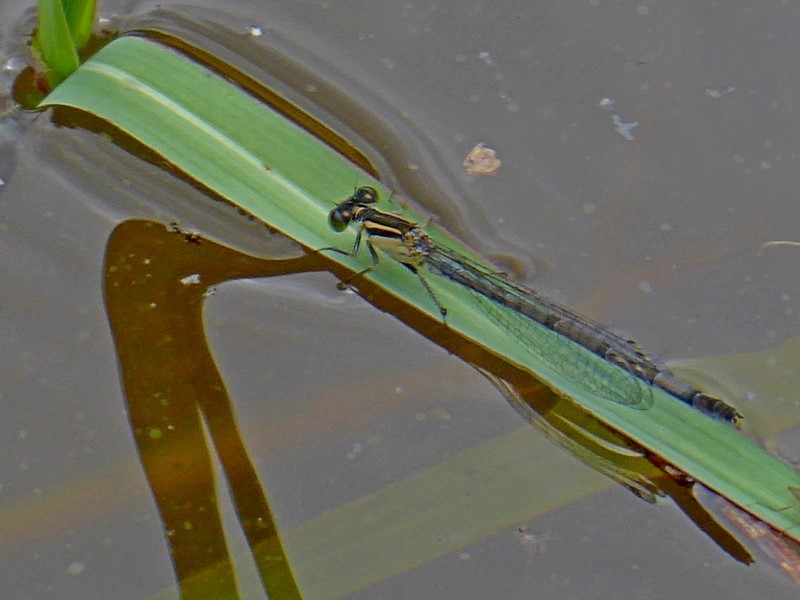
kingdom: Animalia
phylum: Arthropoda
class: Insecta
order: Odonata
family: Coenagrionidae
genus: Ischnura
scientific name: Ischnura heterosticta
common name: Common bluetail
